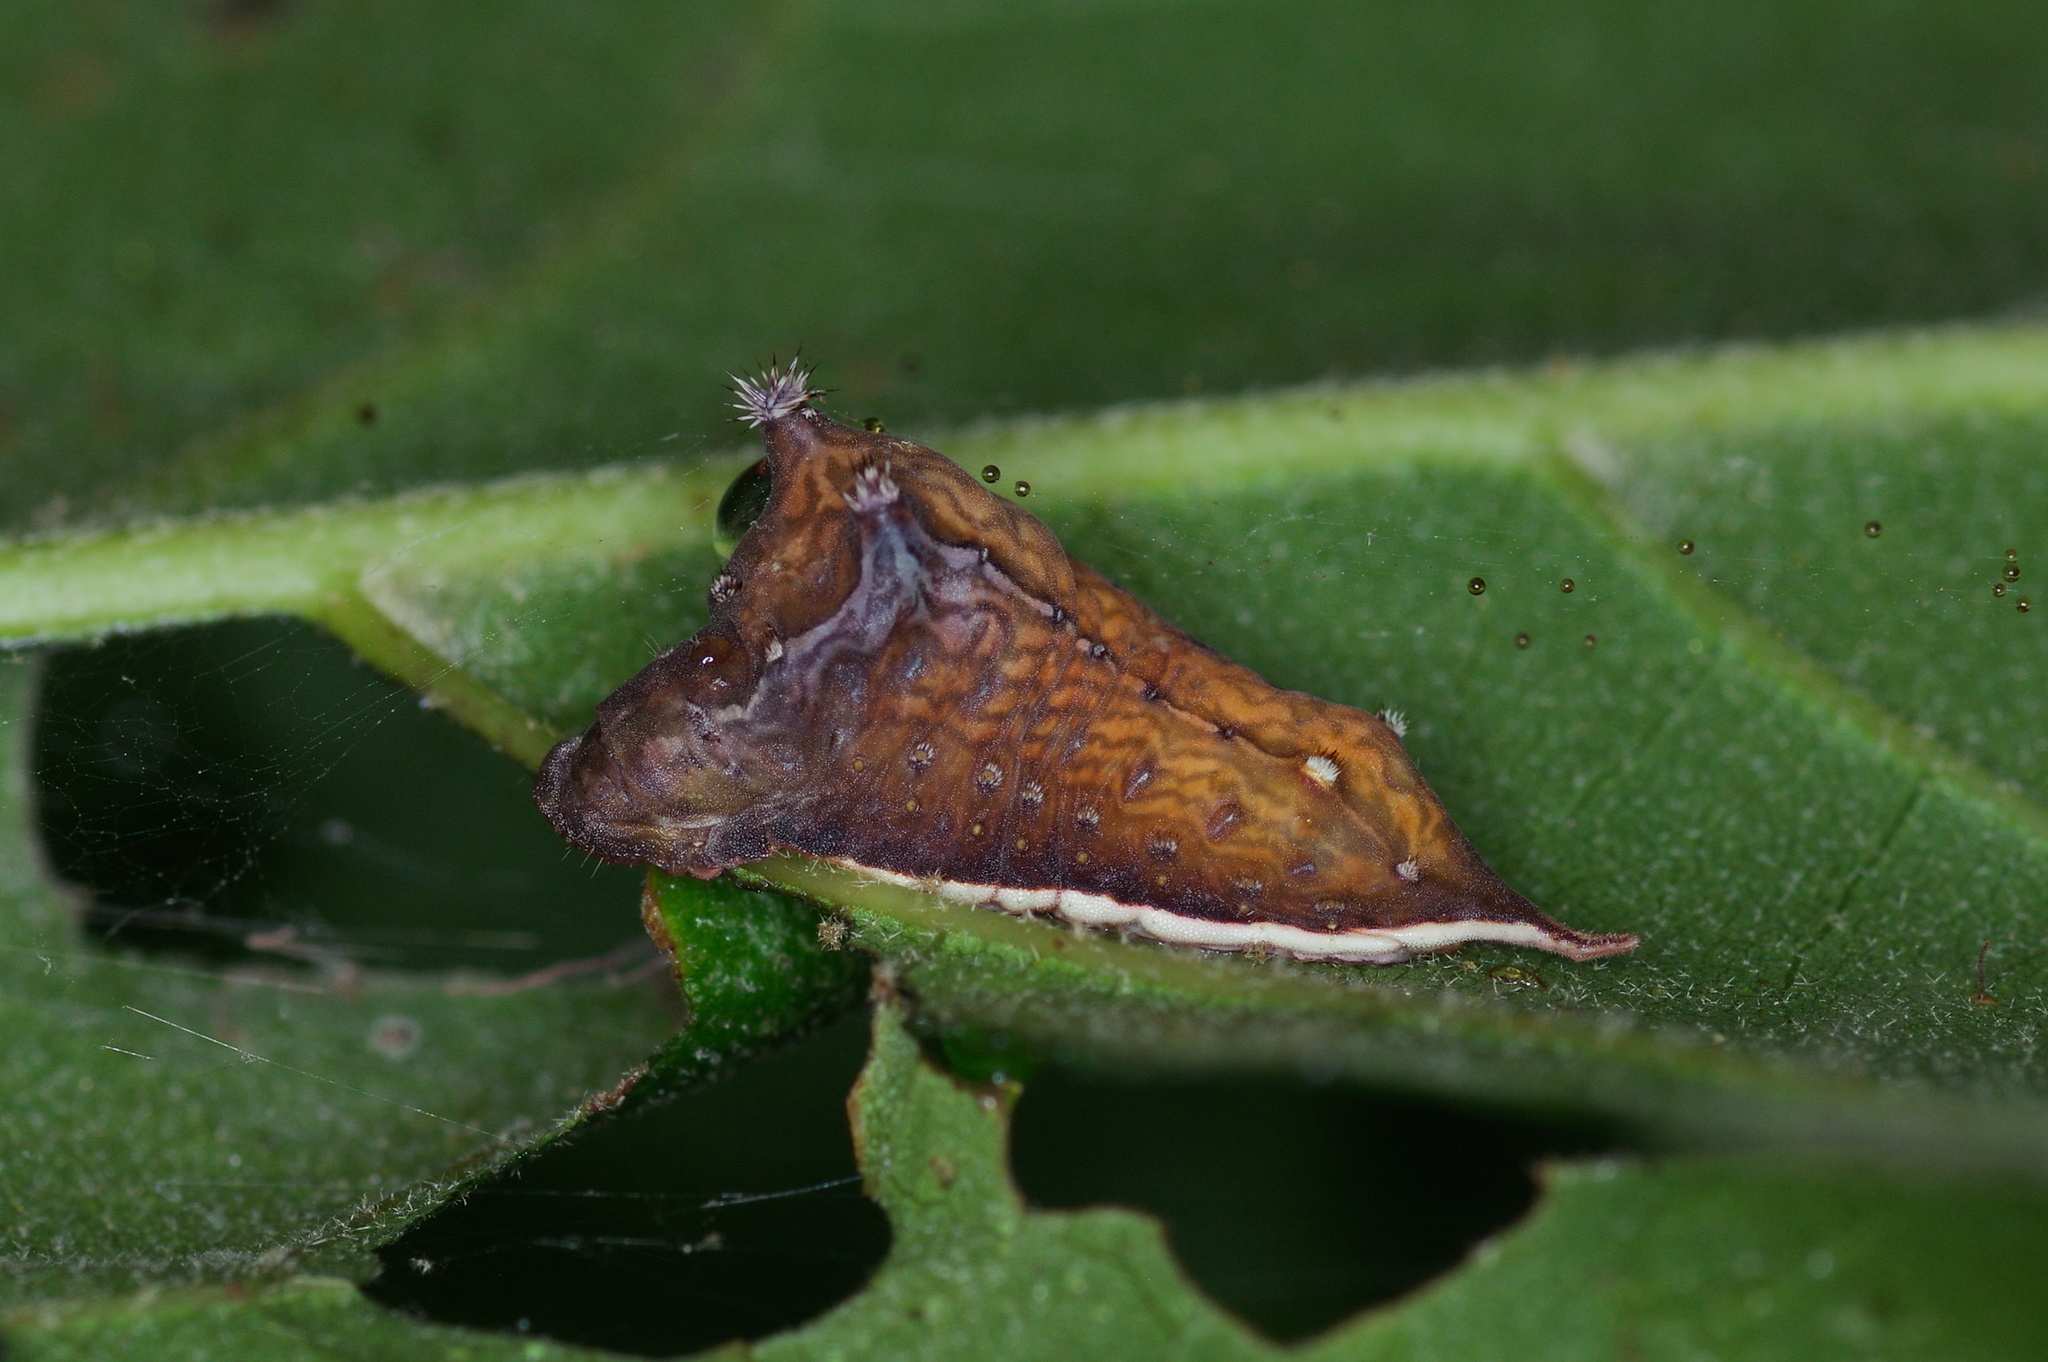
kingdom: Animalia
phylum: Arthropoda
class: Insecta
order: Lepidoptera
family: Limacodidae
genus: Parasa
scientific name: Parasa chloris
